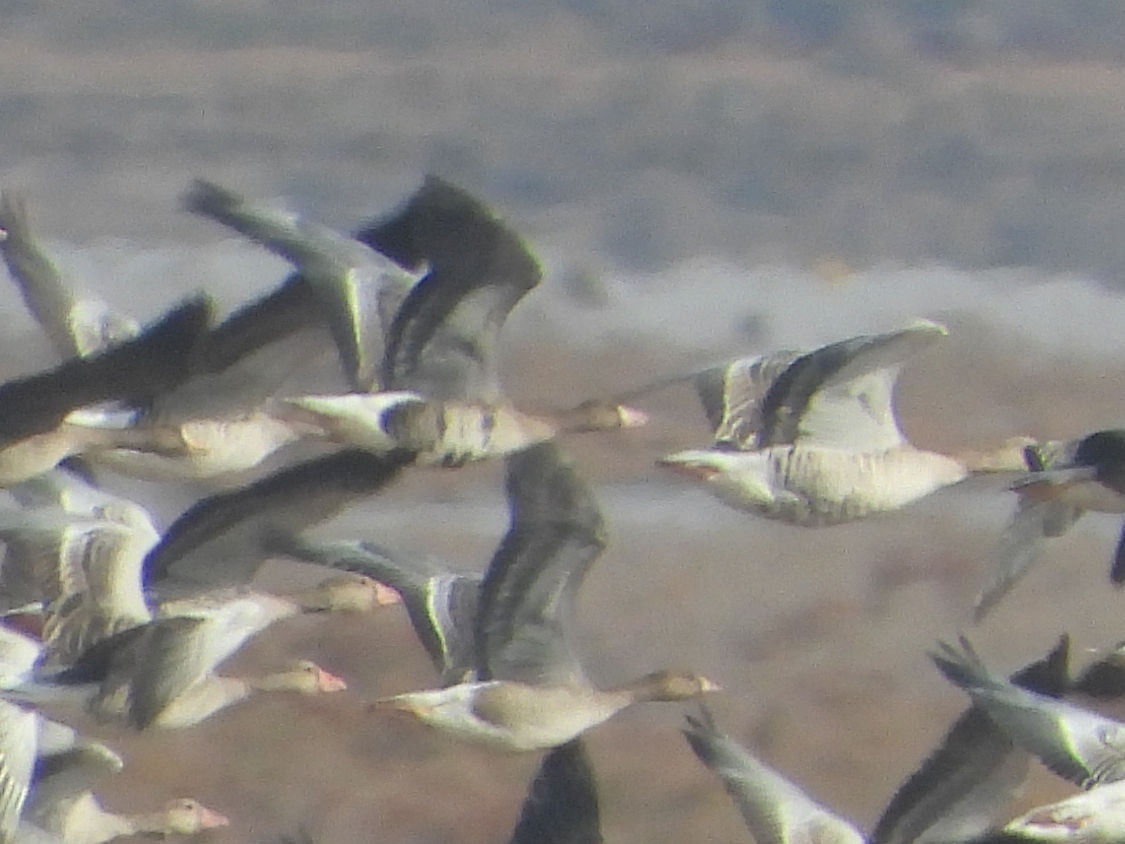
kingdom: Animalia
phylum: Chordata
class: Aves
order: Anseriformes
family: Anatidae
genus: Anser
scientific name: Anser albifrons
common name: Greater white-fronted goose
